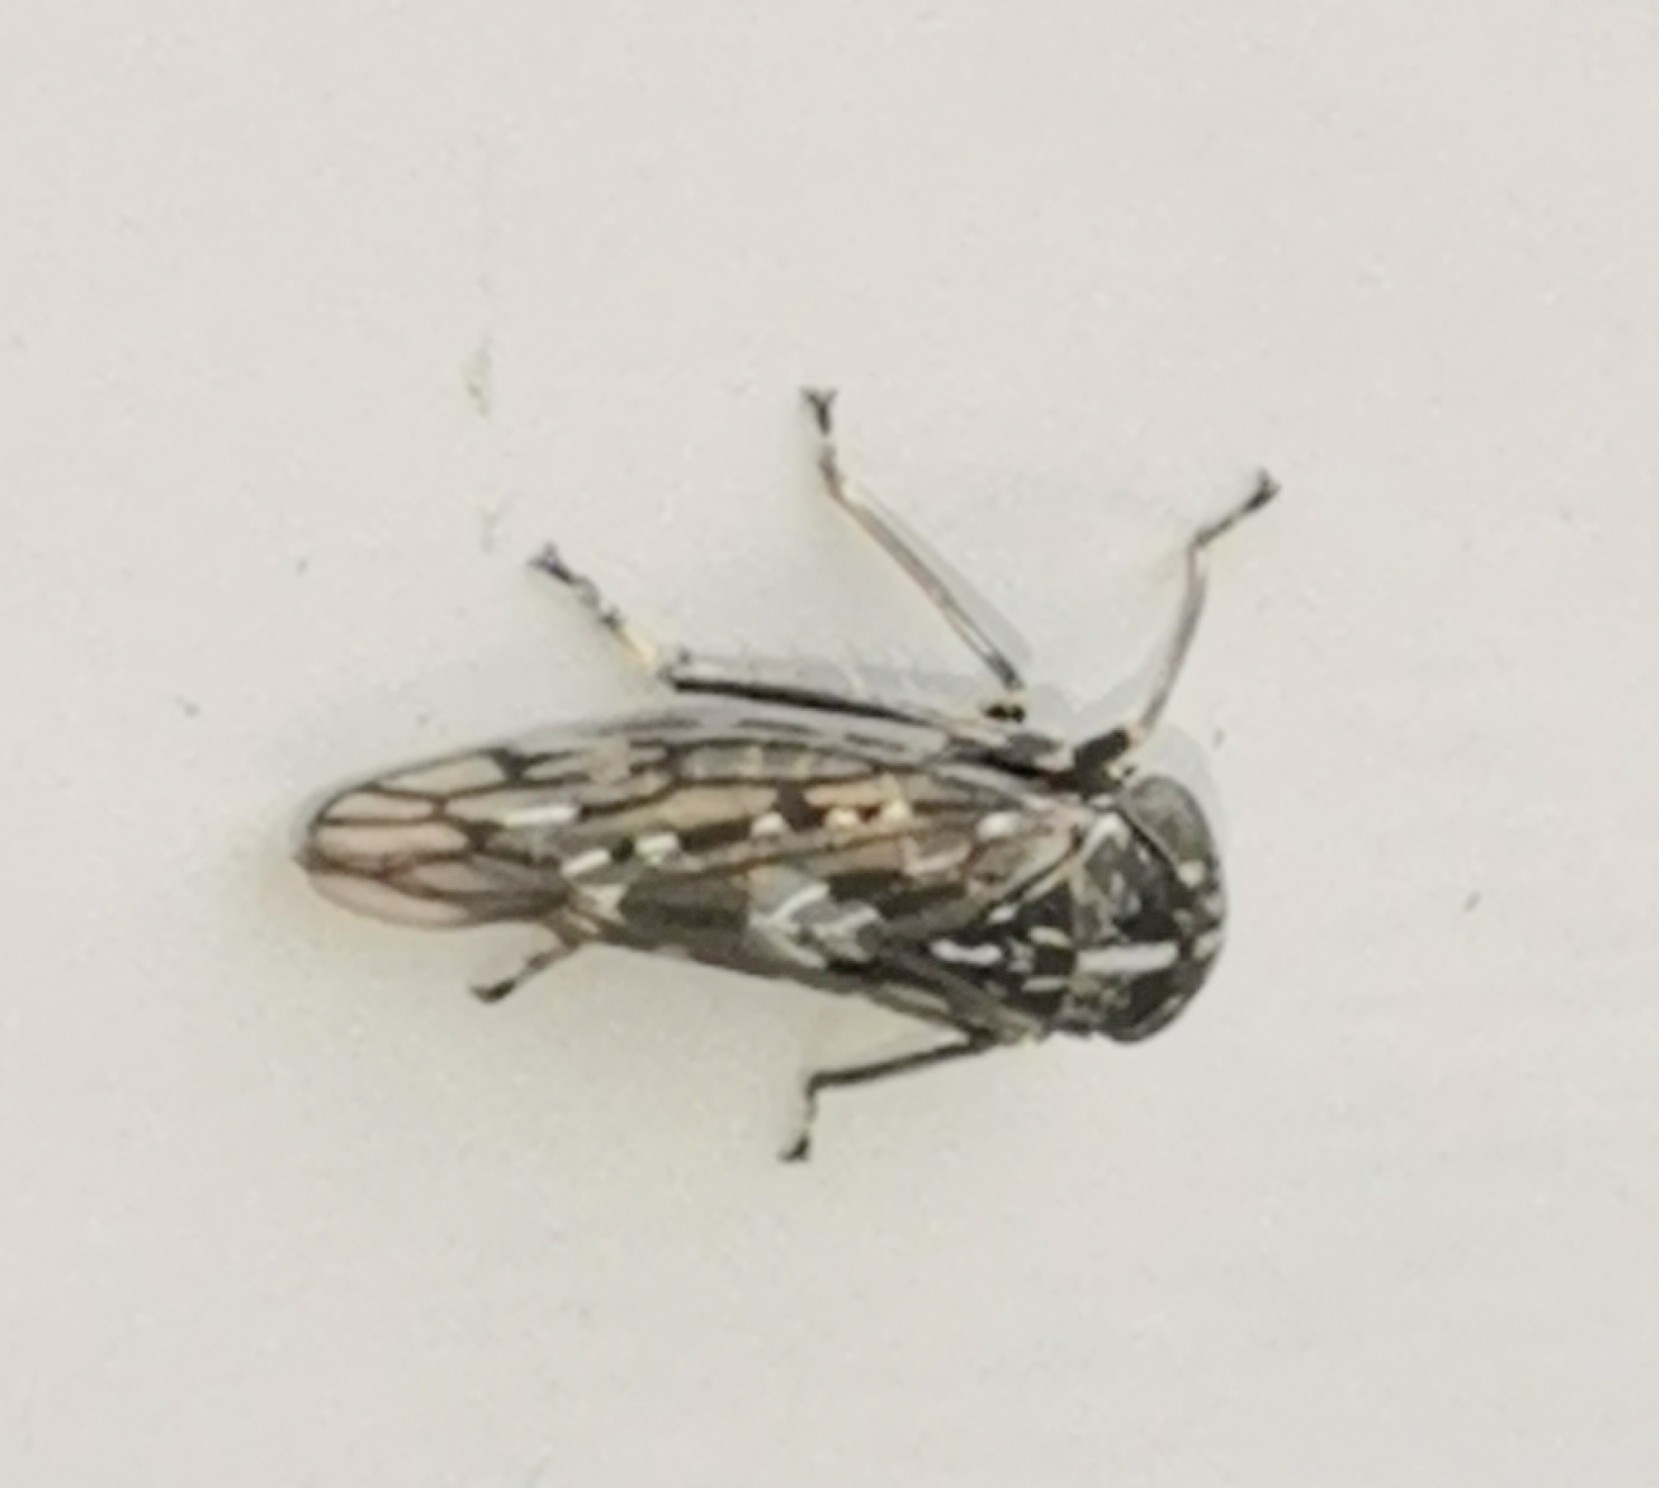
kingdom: Animalia
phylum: Arthropoda
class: Insecta
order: Hemiptera
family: Cicadellidae
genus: Metidiocerus
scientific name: Metidiocerus poecilus
